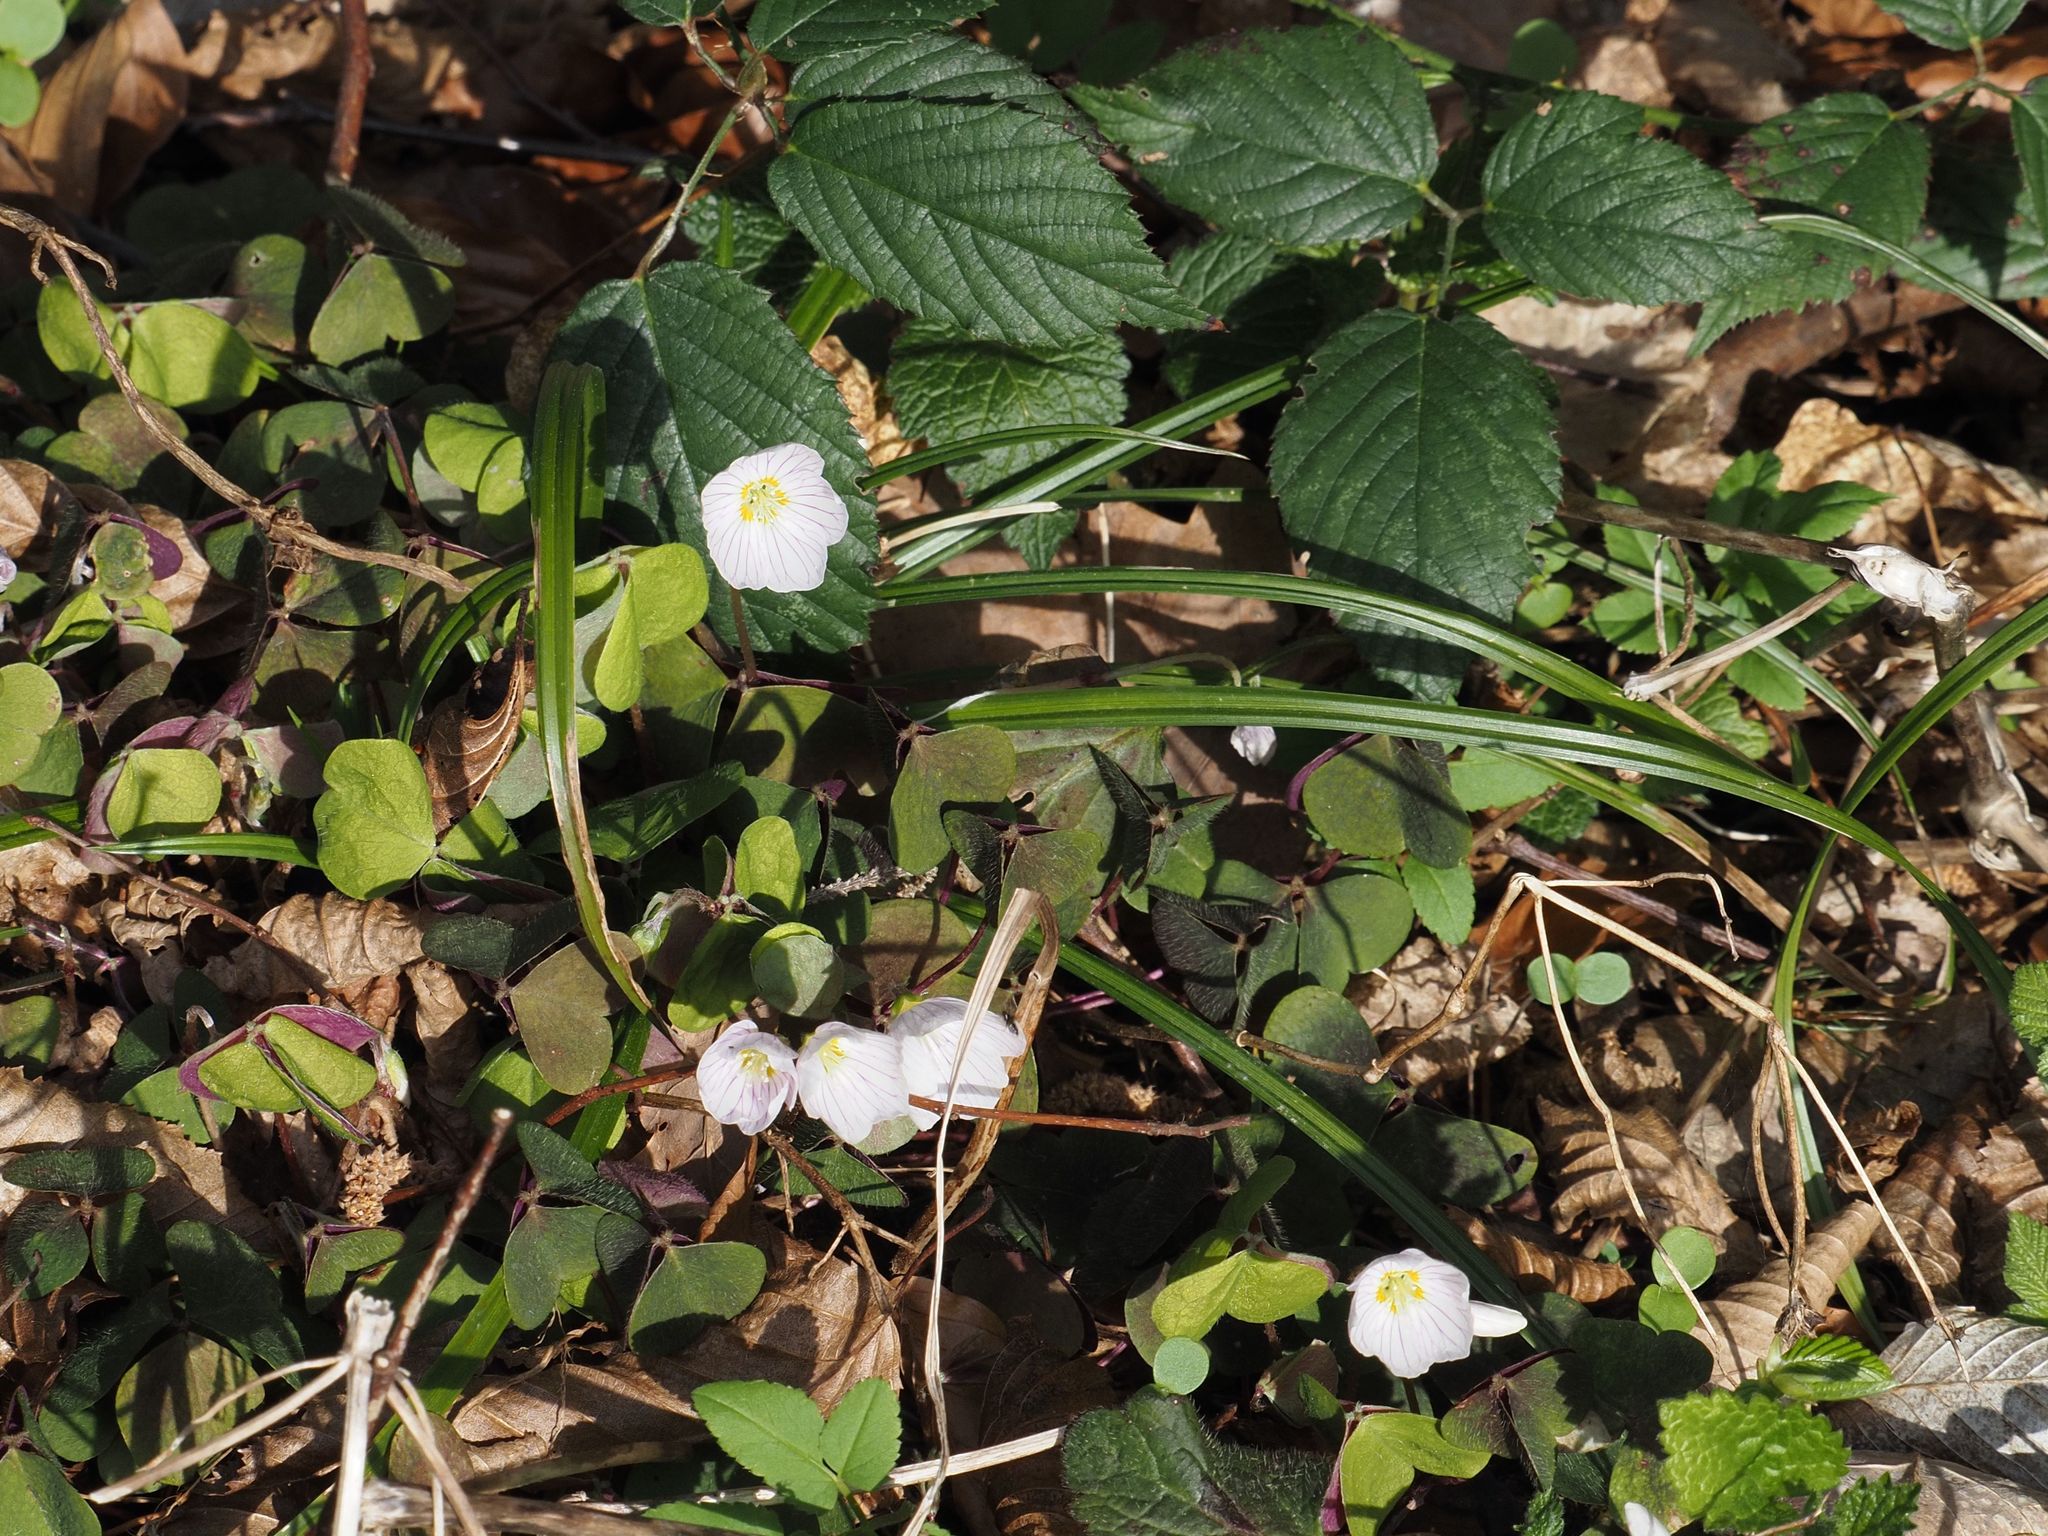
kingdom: Plantae
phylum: Tracheophyta
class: Magnoliopsida
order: Oxalidales
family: Oxalidaceae
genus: Oxalis
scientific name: Oxalis acetosella
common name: Wood-sorrel
